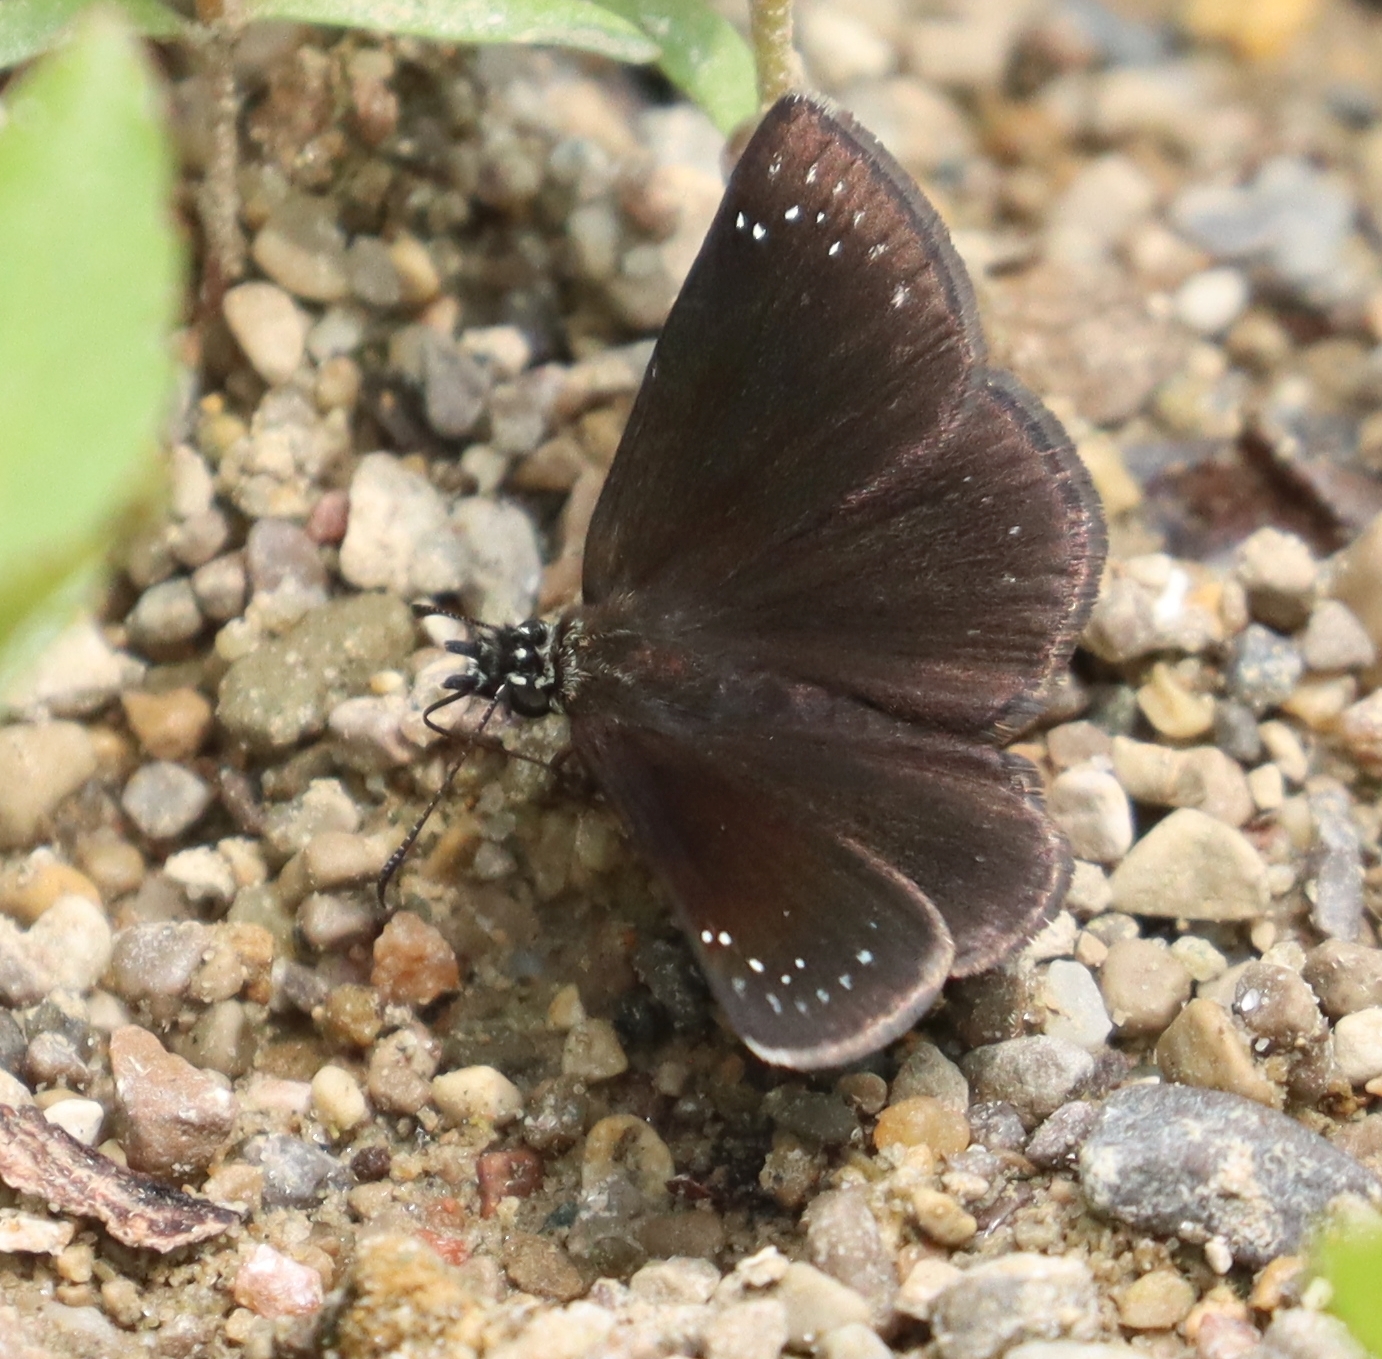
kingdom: Animalia
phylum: Arthropoda
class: Insecta
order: Lepidoptera
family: Hesperiidae
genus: Pholisora
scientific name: Pholisora catullus
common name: Common sootywing
